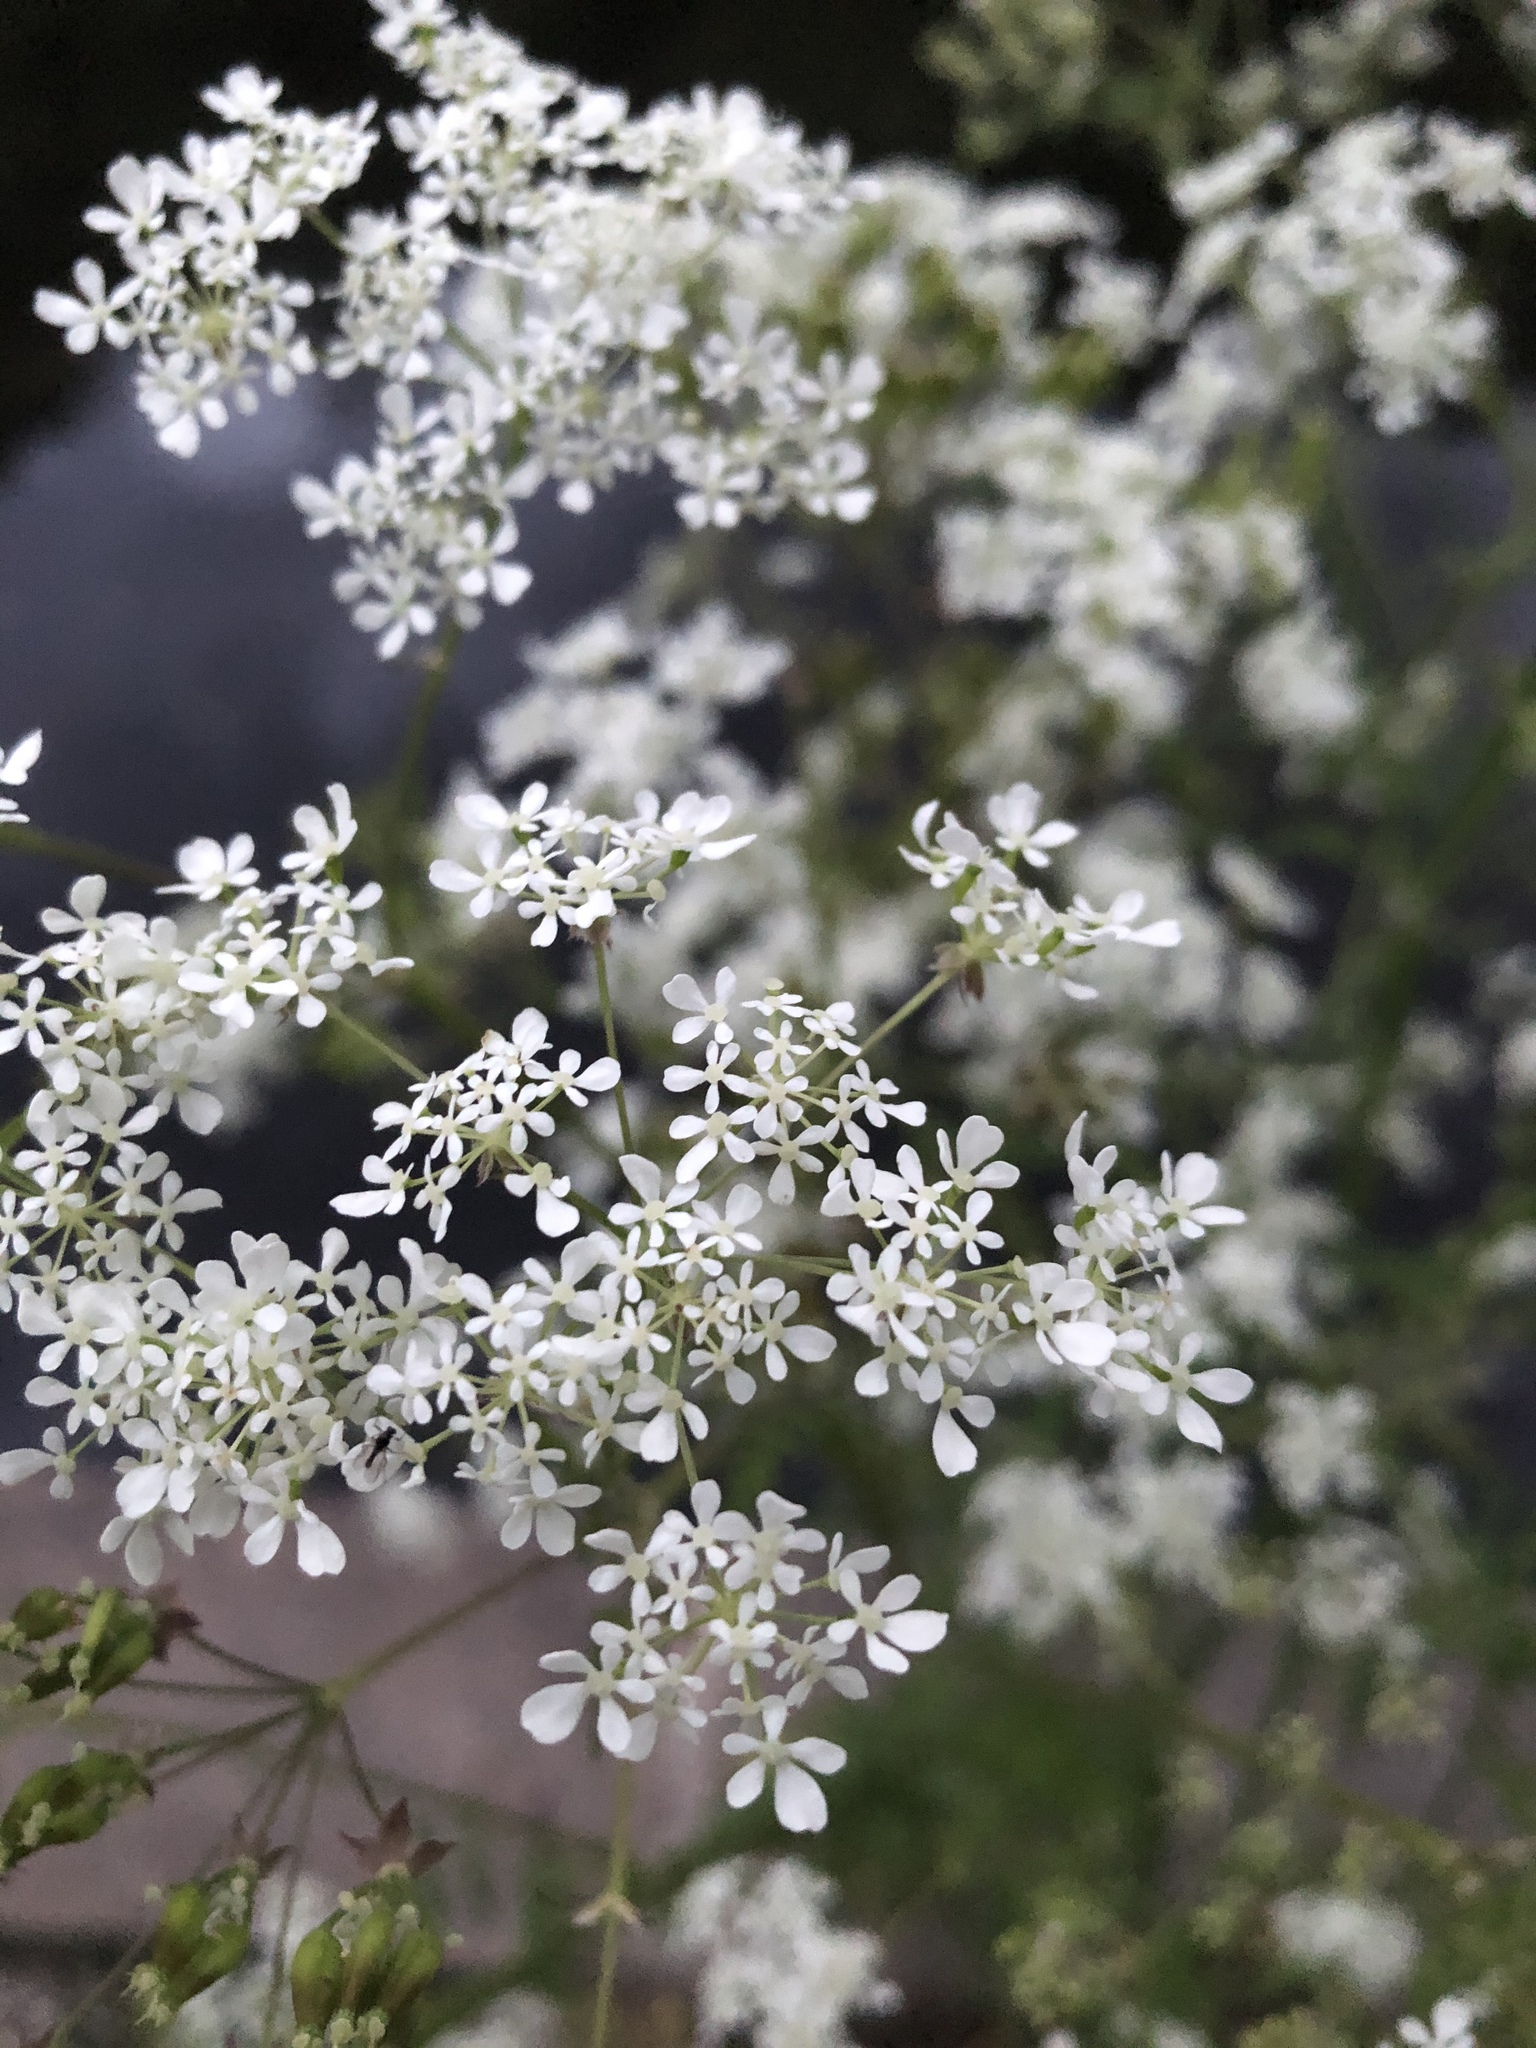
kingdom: Plantae
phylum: Tracheophyta
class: Magnoliopsida
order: Apiales
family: Apiaceae
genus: Anthriscus
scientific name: Anthriscus sylvestris
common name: Cow parsley
